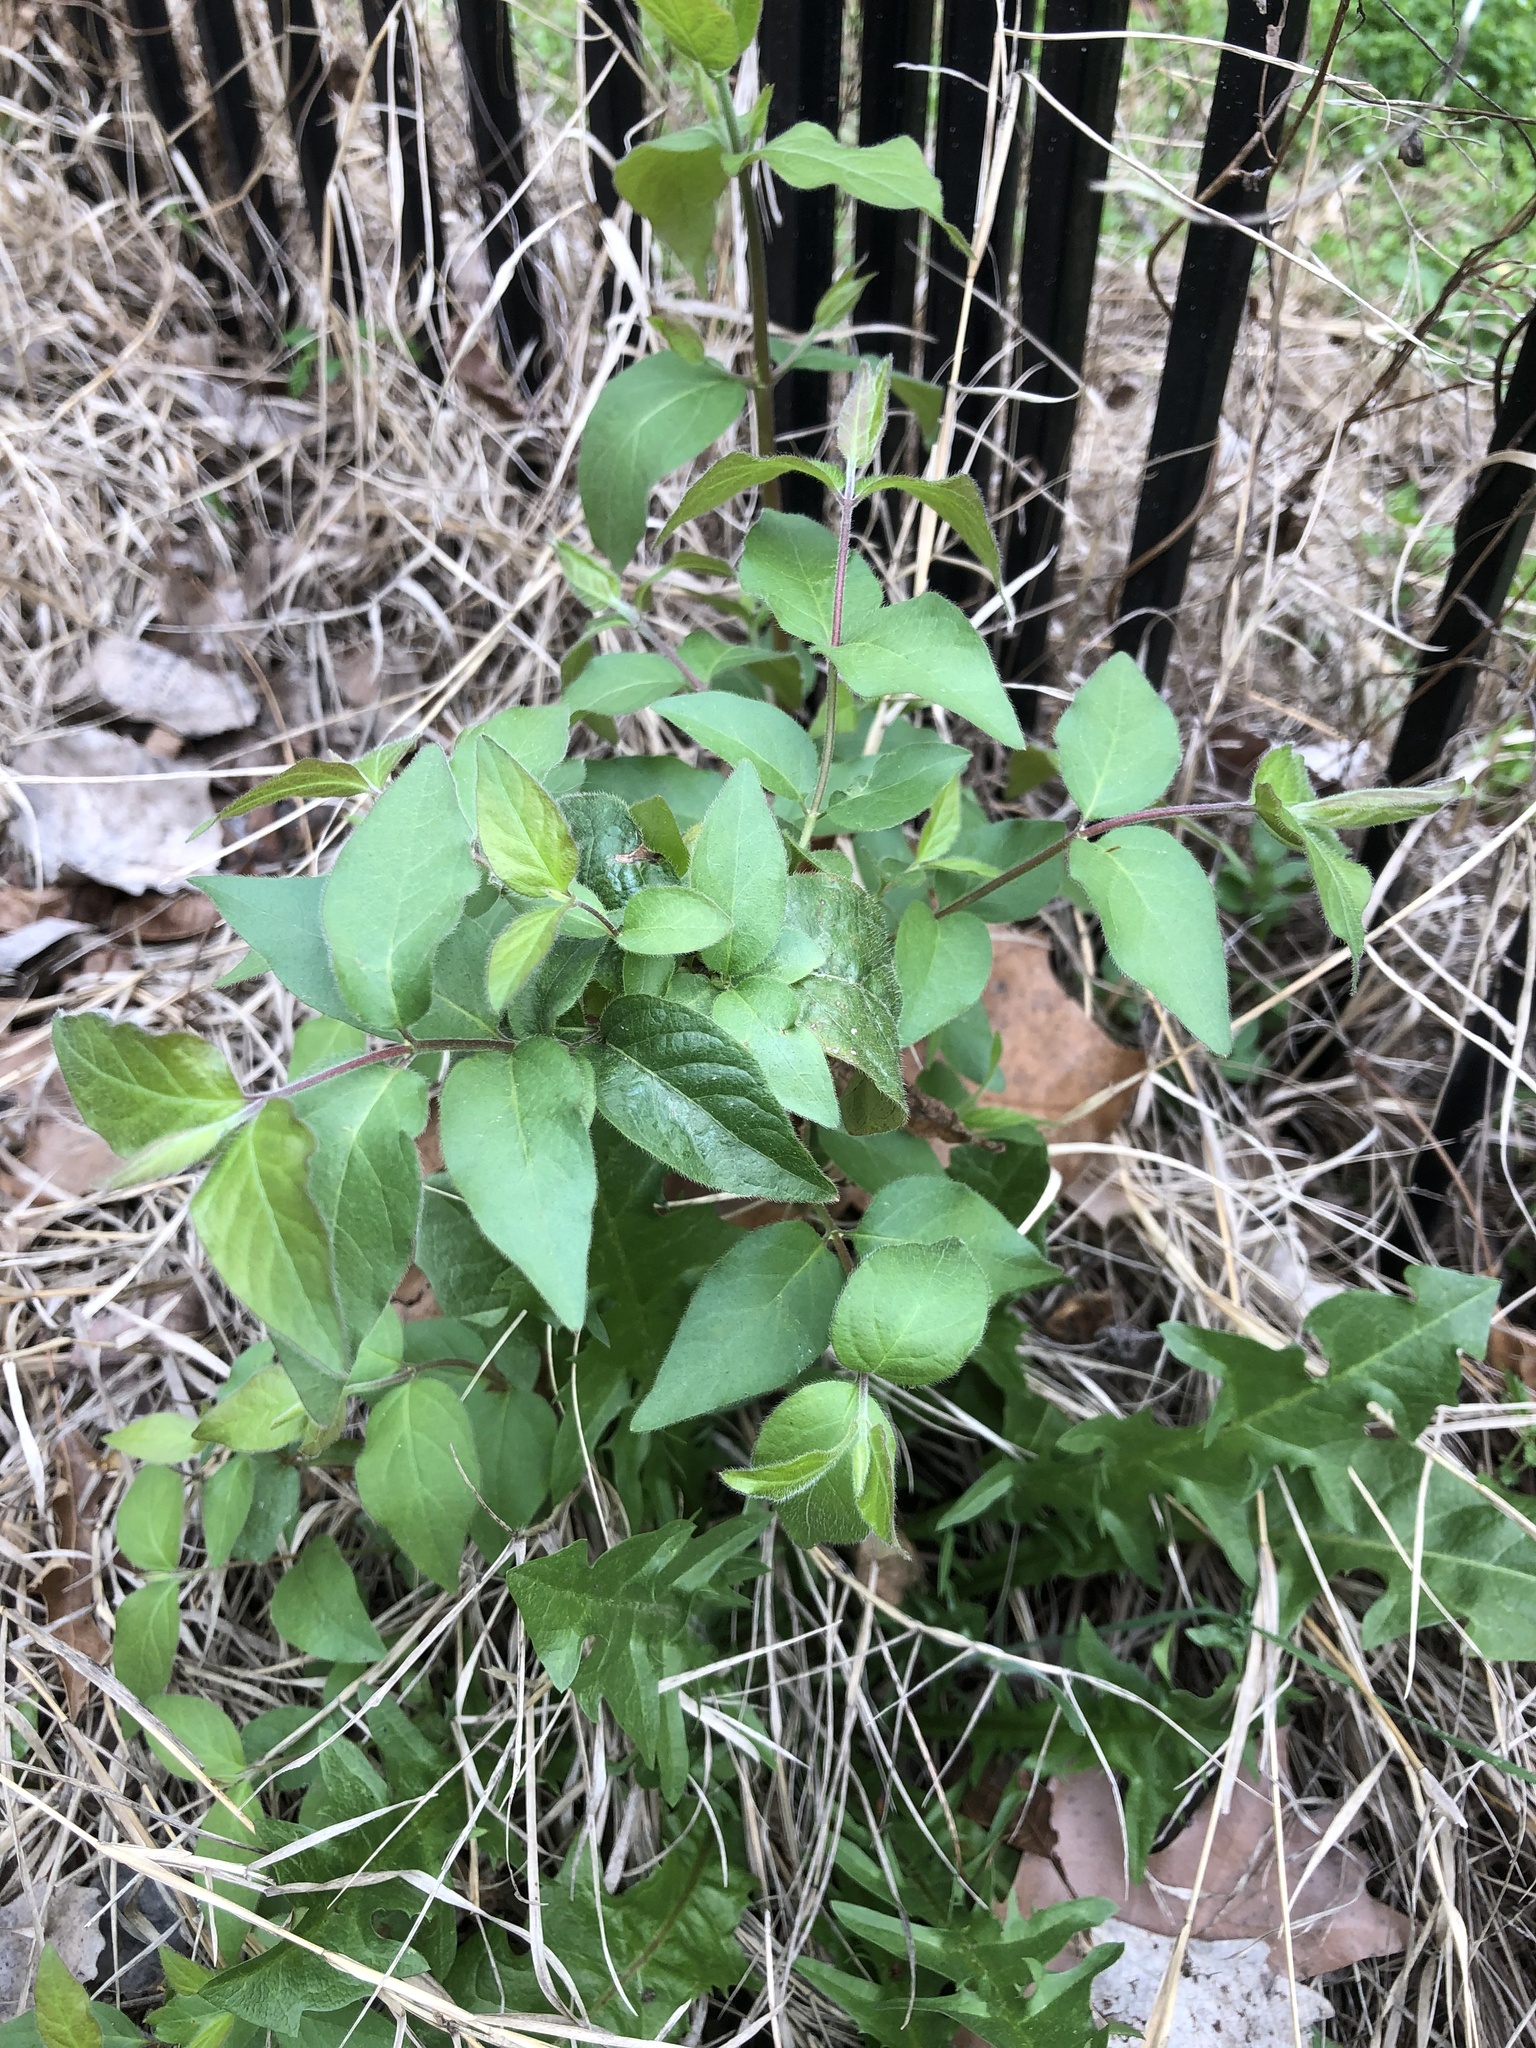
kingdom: Plantae
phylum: Tracheophyta
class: Magnoliopsida
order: Dipsacales
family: Caprifoliaceae
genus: Lonicera
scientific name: Lonicera maackii
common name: Amur honeysuckle
